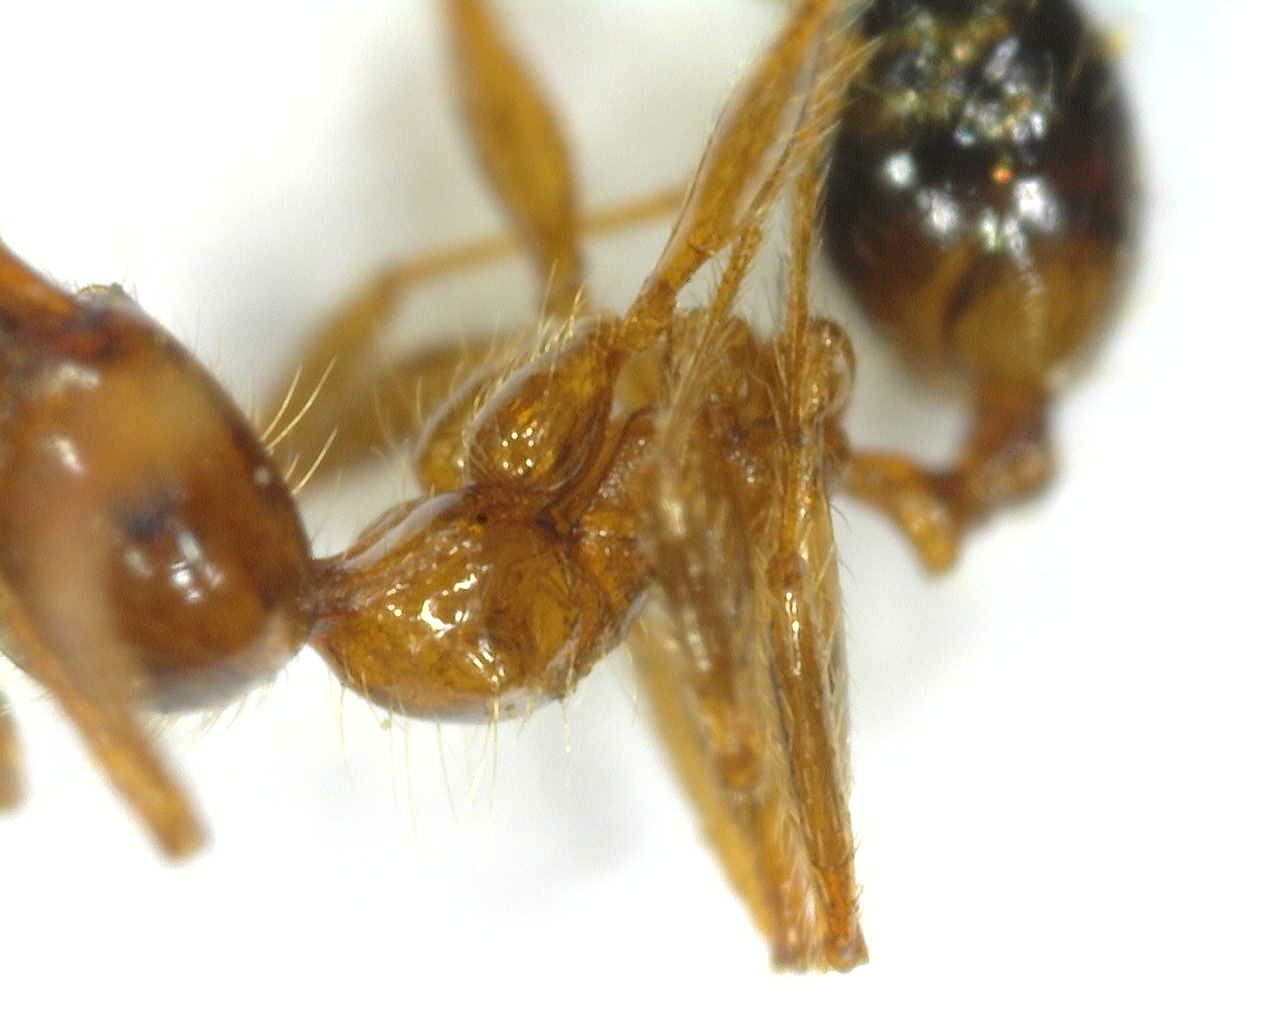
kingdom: Animalia
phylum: Arthropoda
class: Insecta
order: Hymenoptera
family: Formicidae
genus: Pheidole
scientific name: Pheidole pallidula
